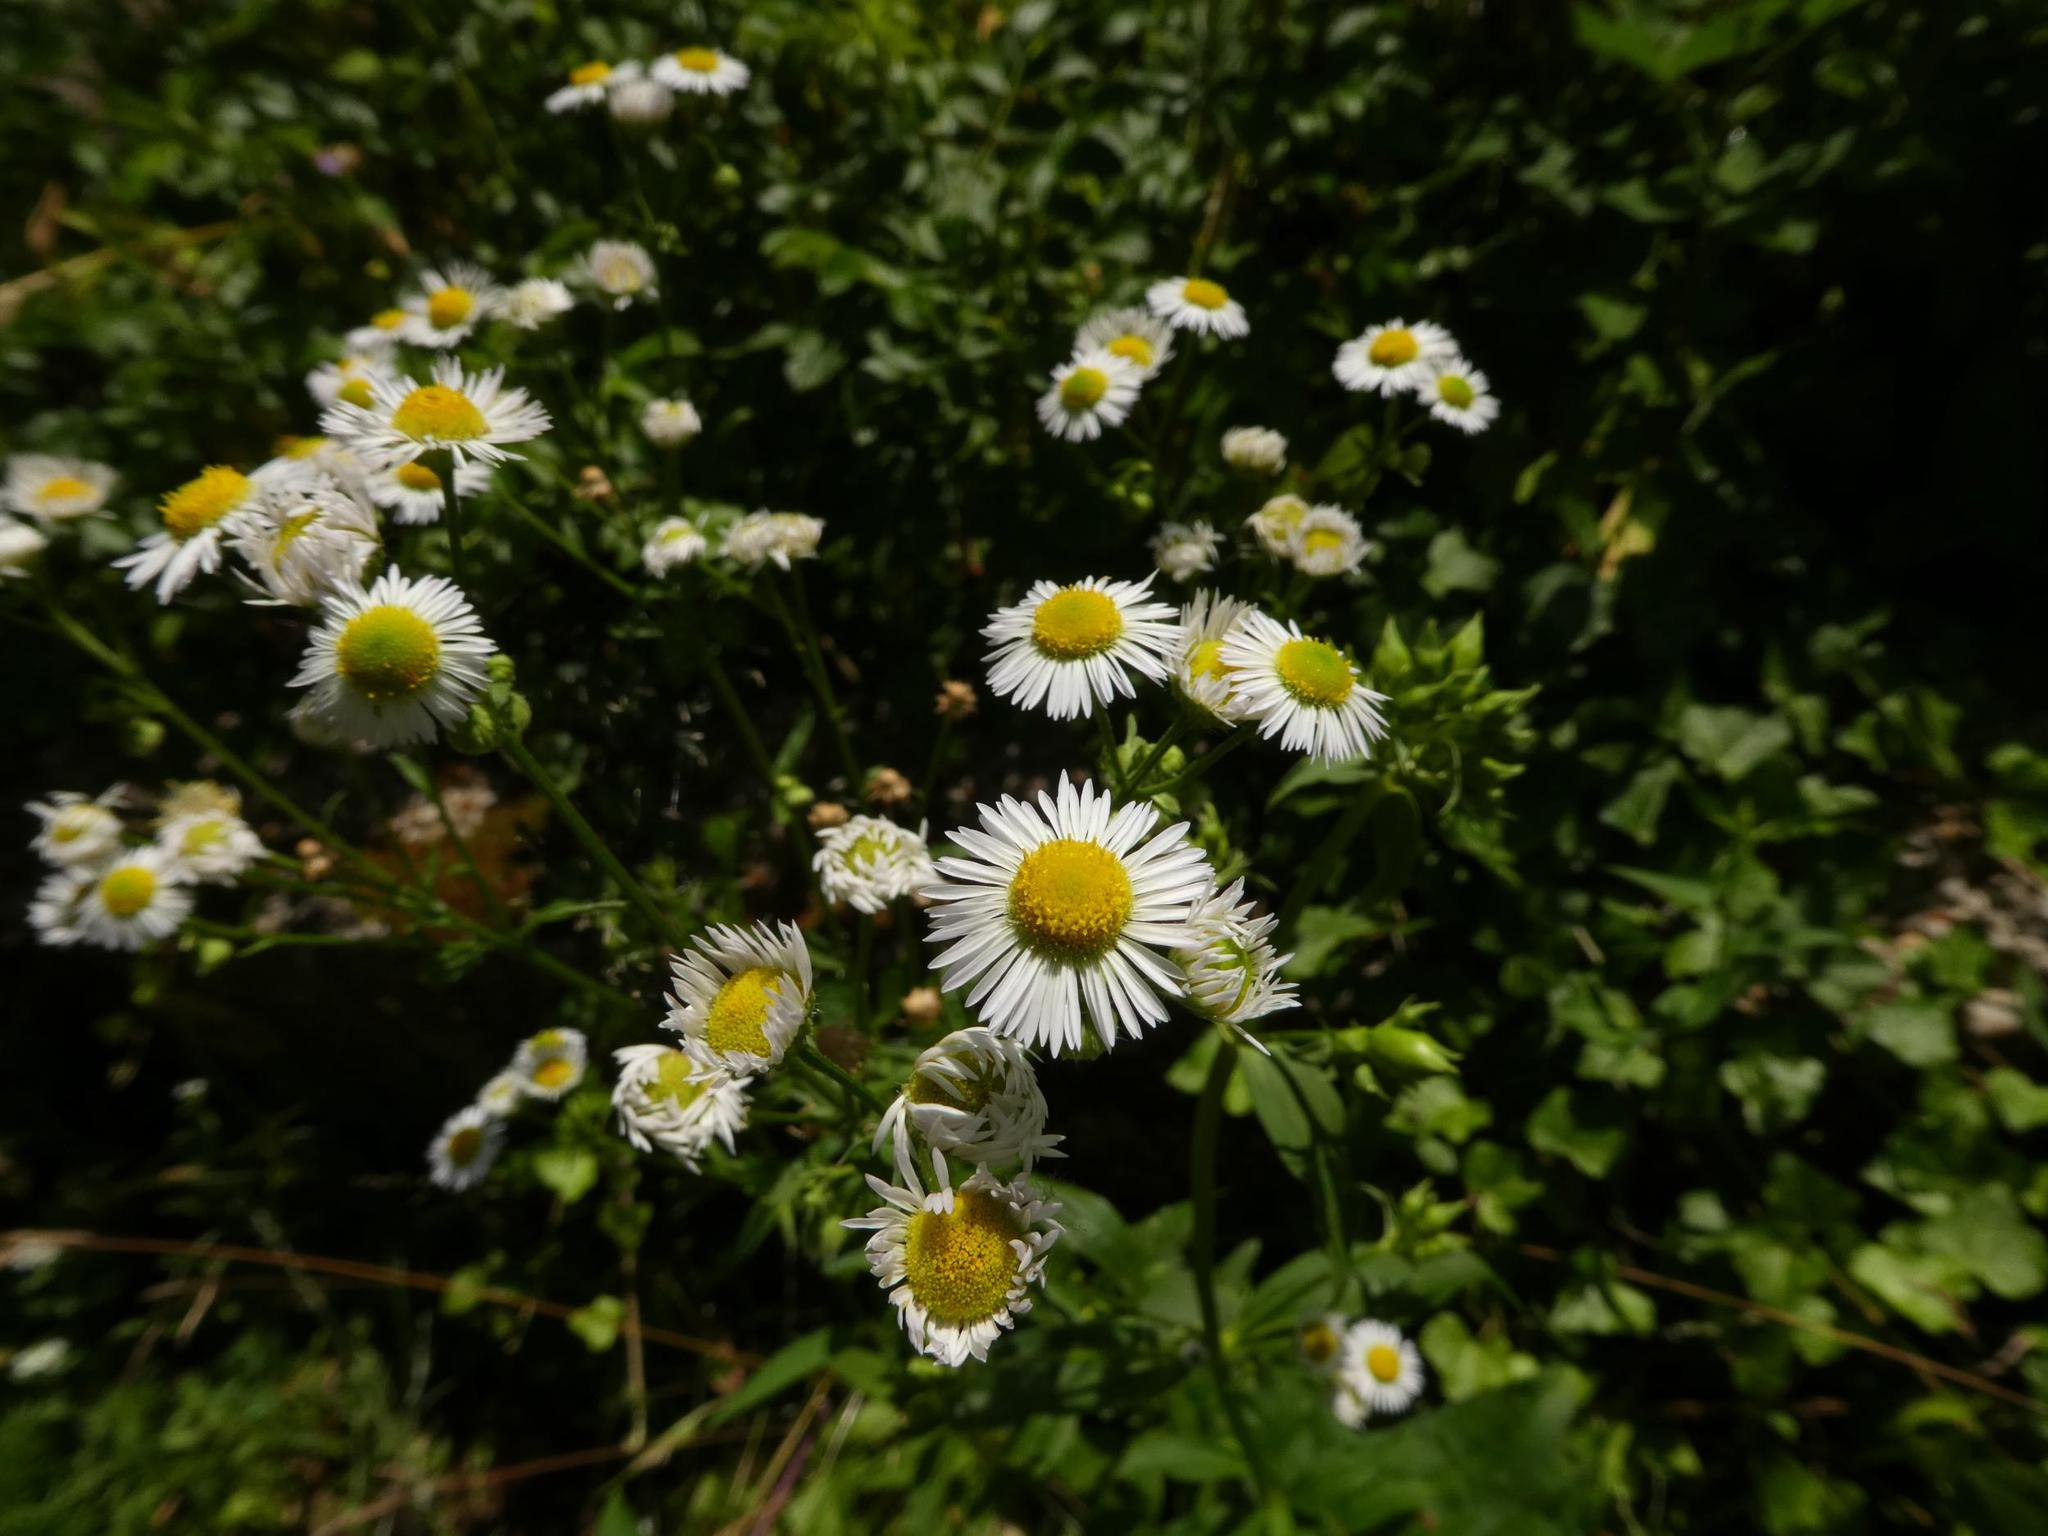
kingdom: Plantae
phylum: Tracheophyta
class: Magnoliopsida
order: Asterales
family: Asteraceae
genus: Erigeron
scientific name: Erigeron annuus
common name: Tall fleabane
